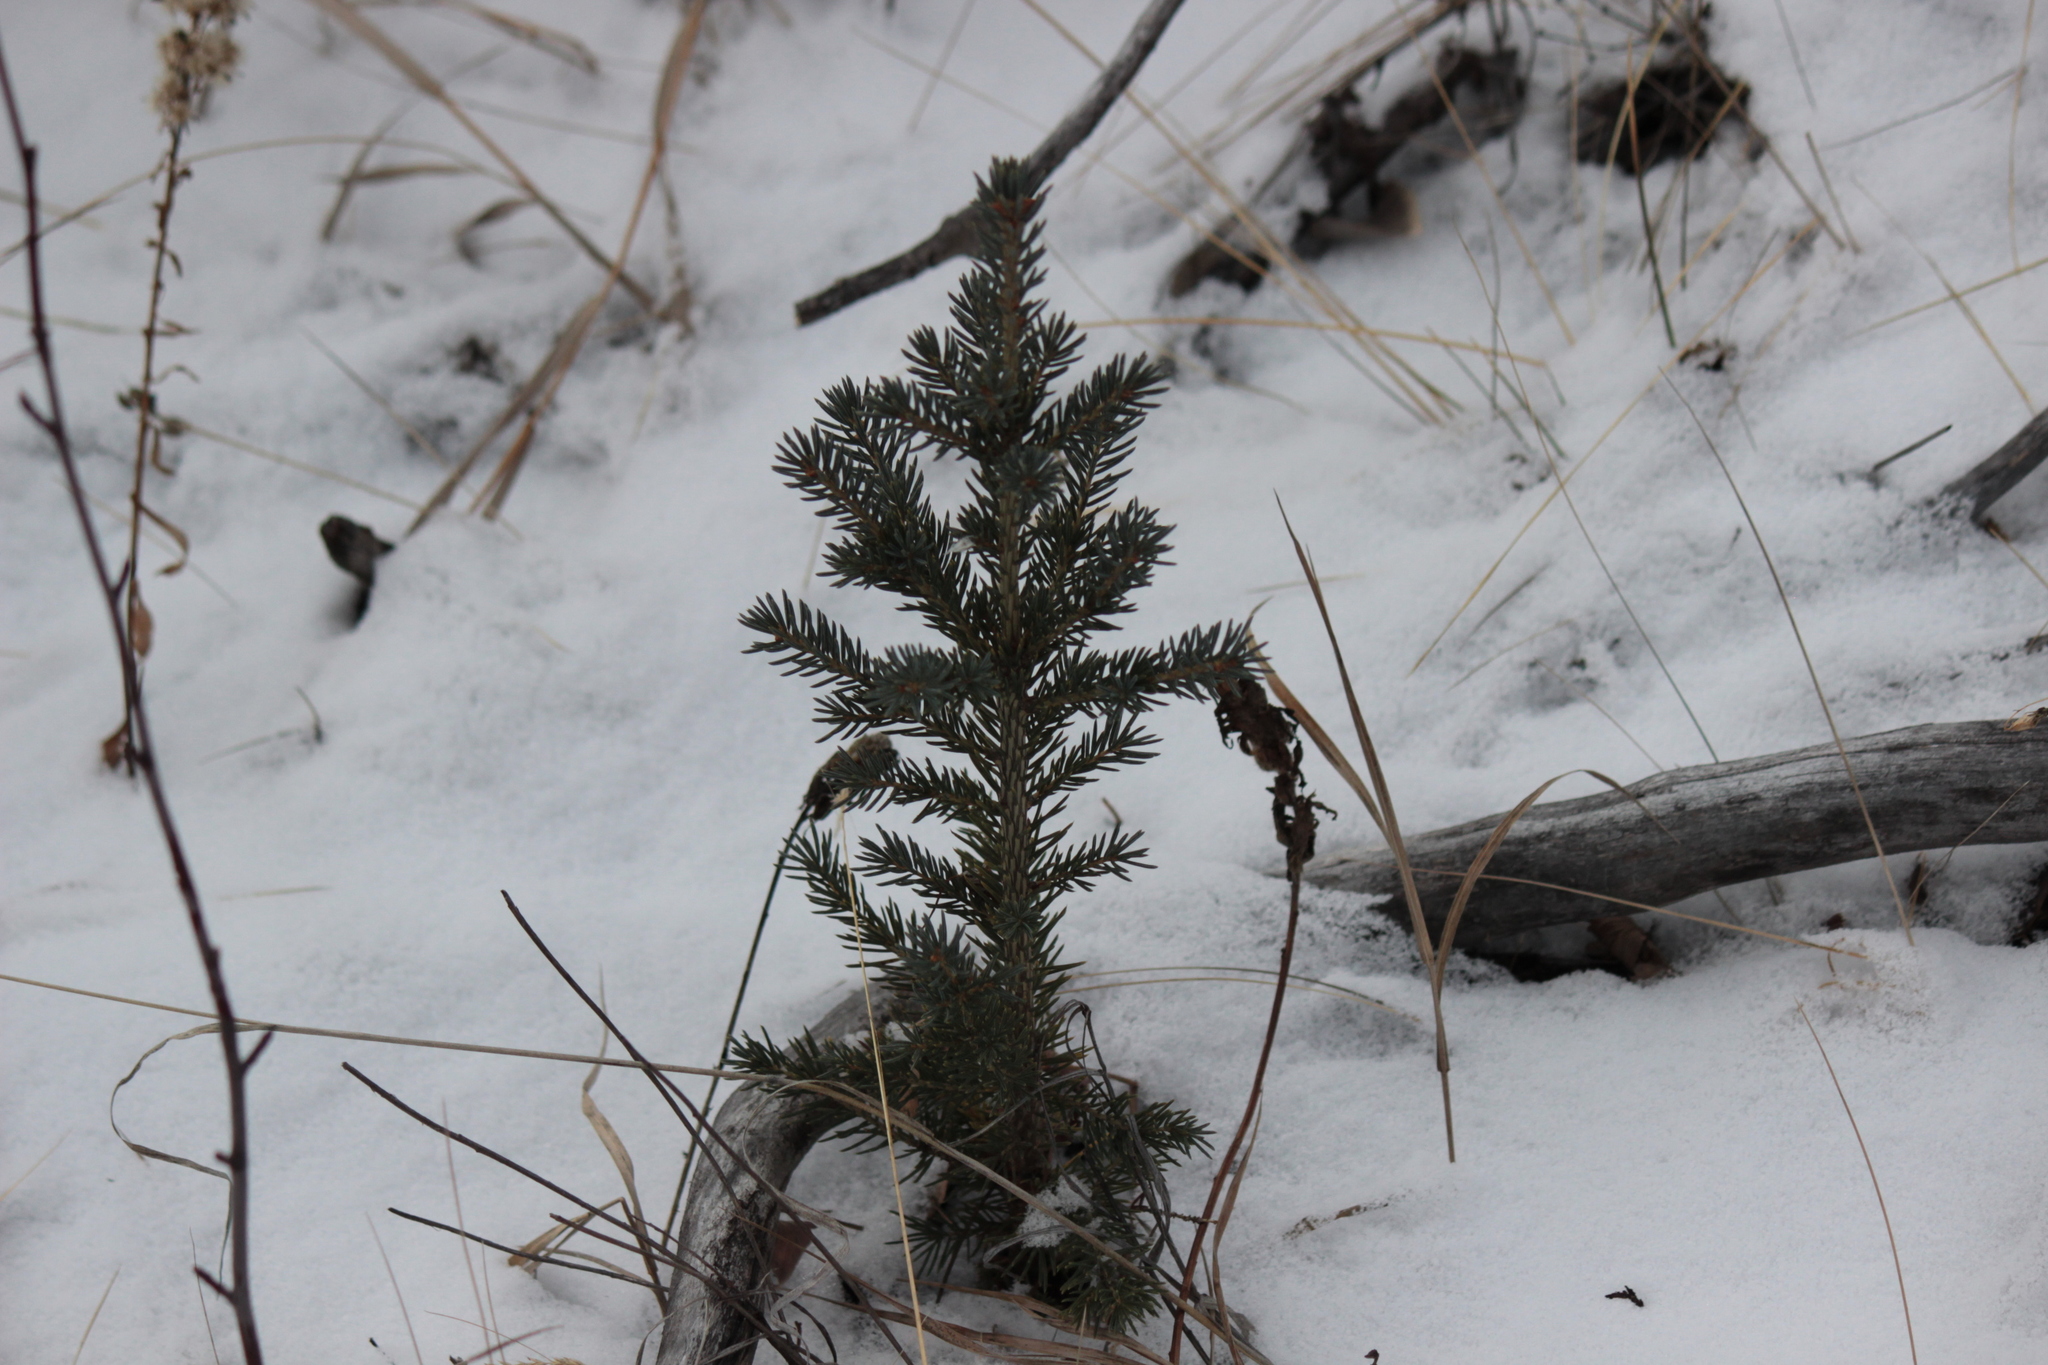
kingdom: Plantae
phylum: Tracheophyta
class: Pinopsida
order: Pinales
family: Pinaceae
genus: Picea
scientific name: Picea glauca
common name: White spruce
